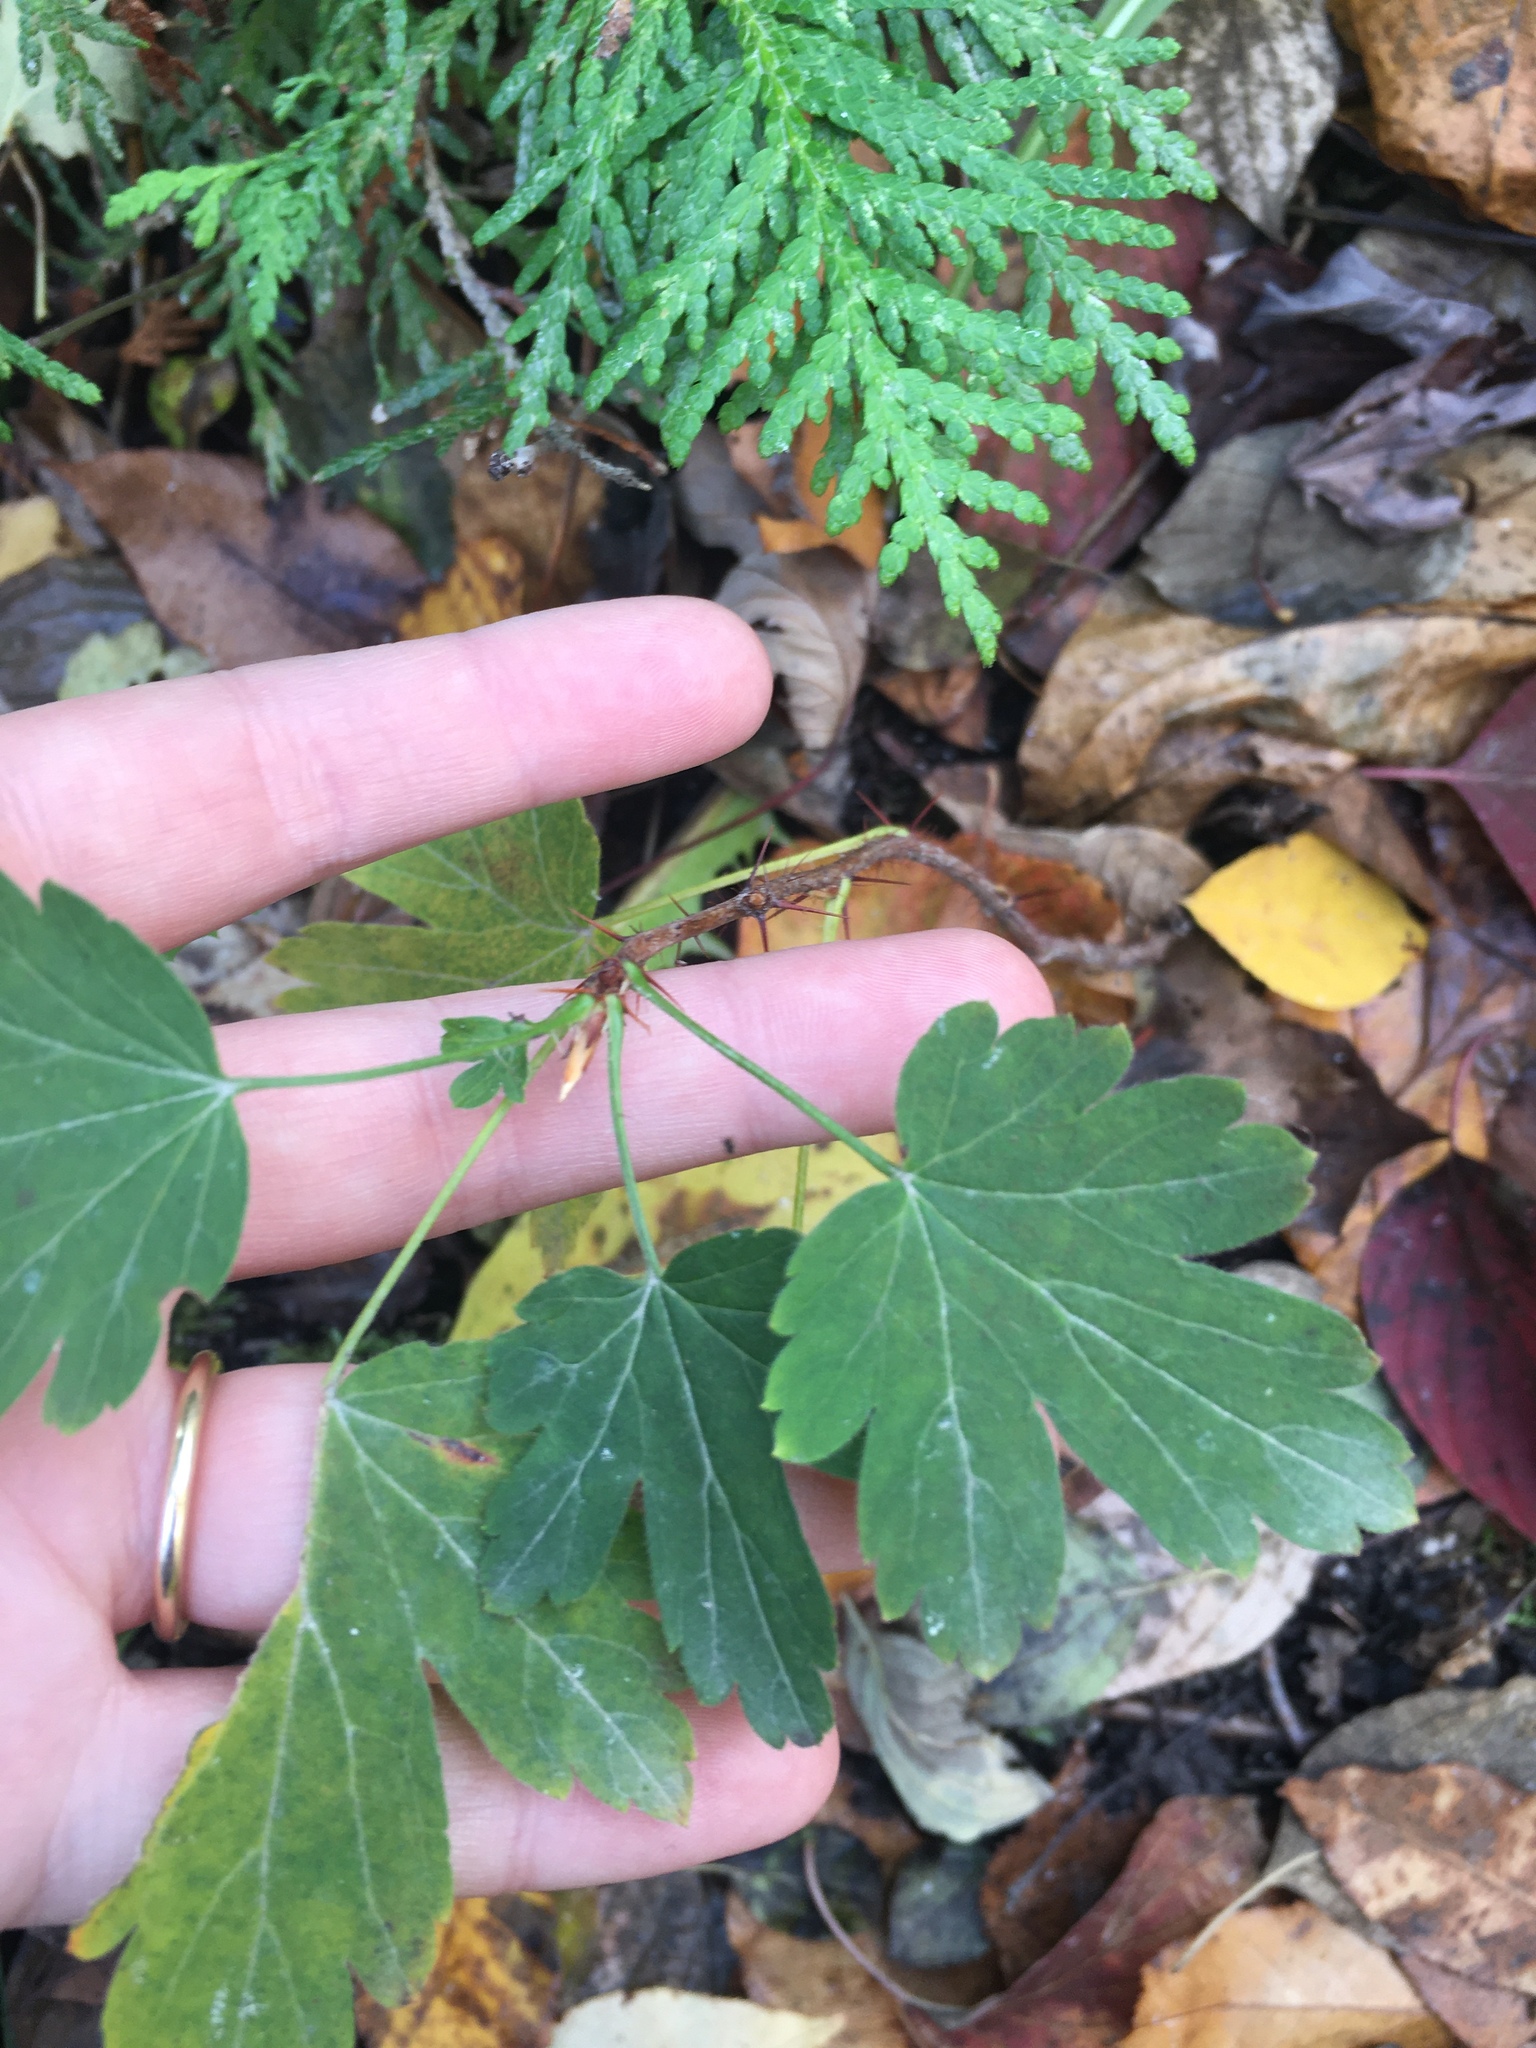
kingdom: Plantae
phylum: Tracheophyta
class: Magnoliopsida
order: Saxifragales
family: Grossulariaceae
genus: Ribes
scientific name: Ribes cynosbati
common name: American gooseberry
